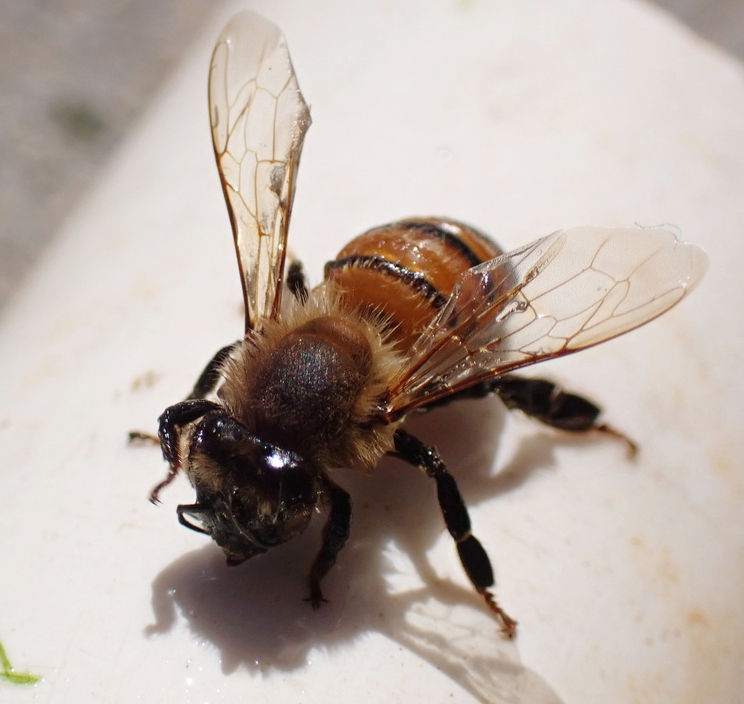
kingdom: Animalia
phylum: Arthropoda
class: Insecta
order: Hymenoptera
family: Apidae
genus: Apis
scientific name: Apis mellifera
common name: Honey bee
